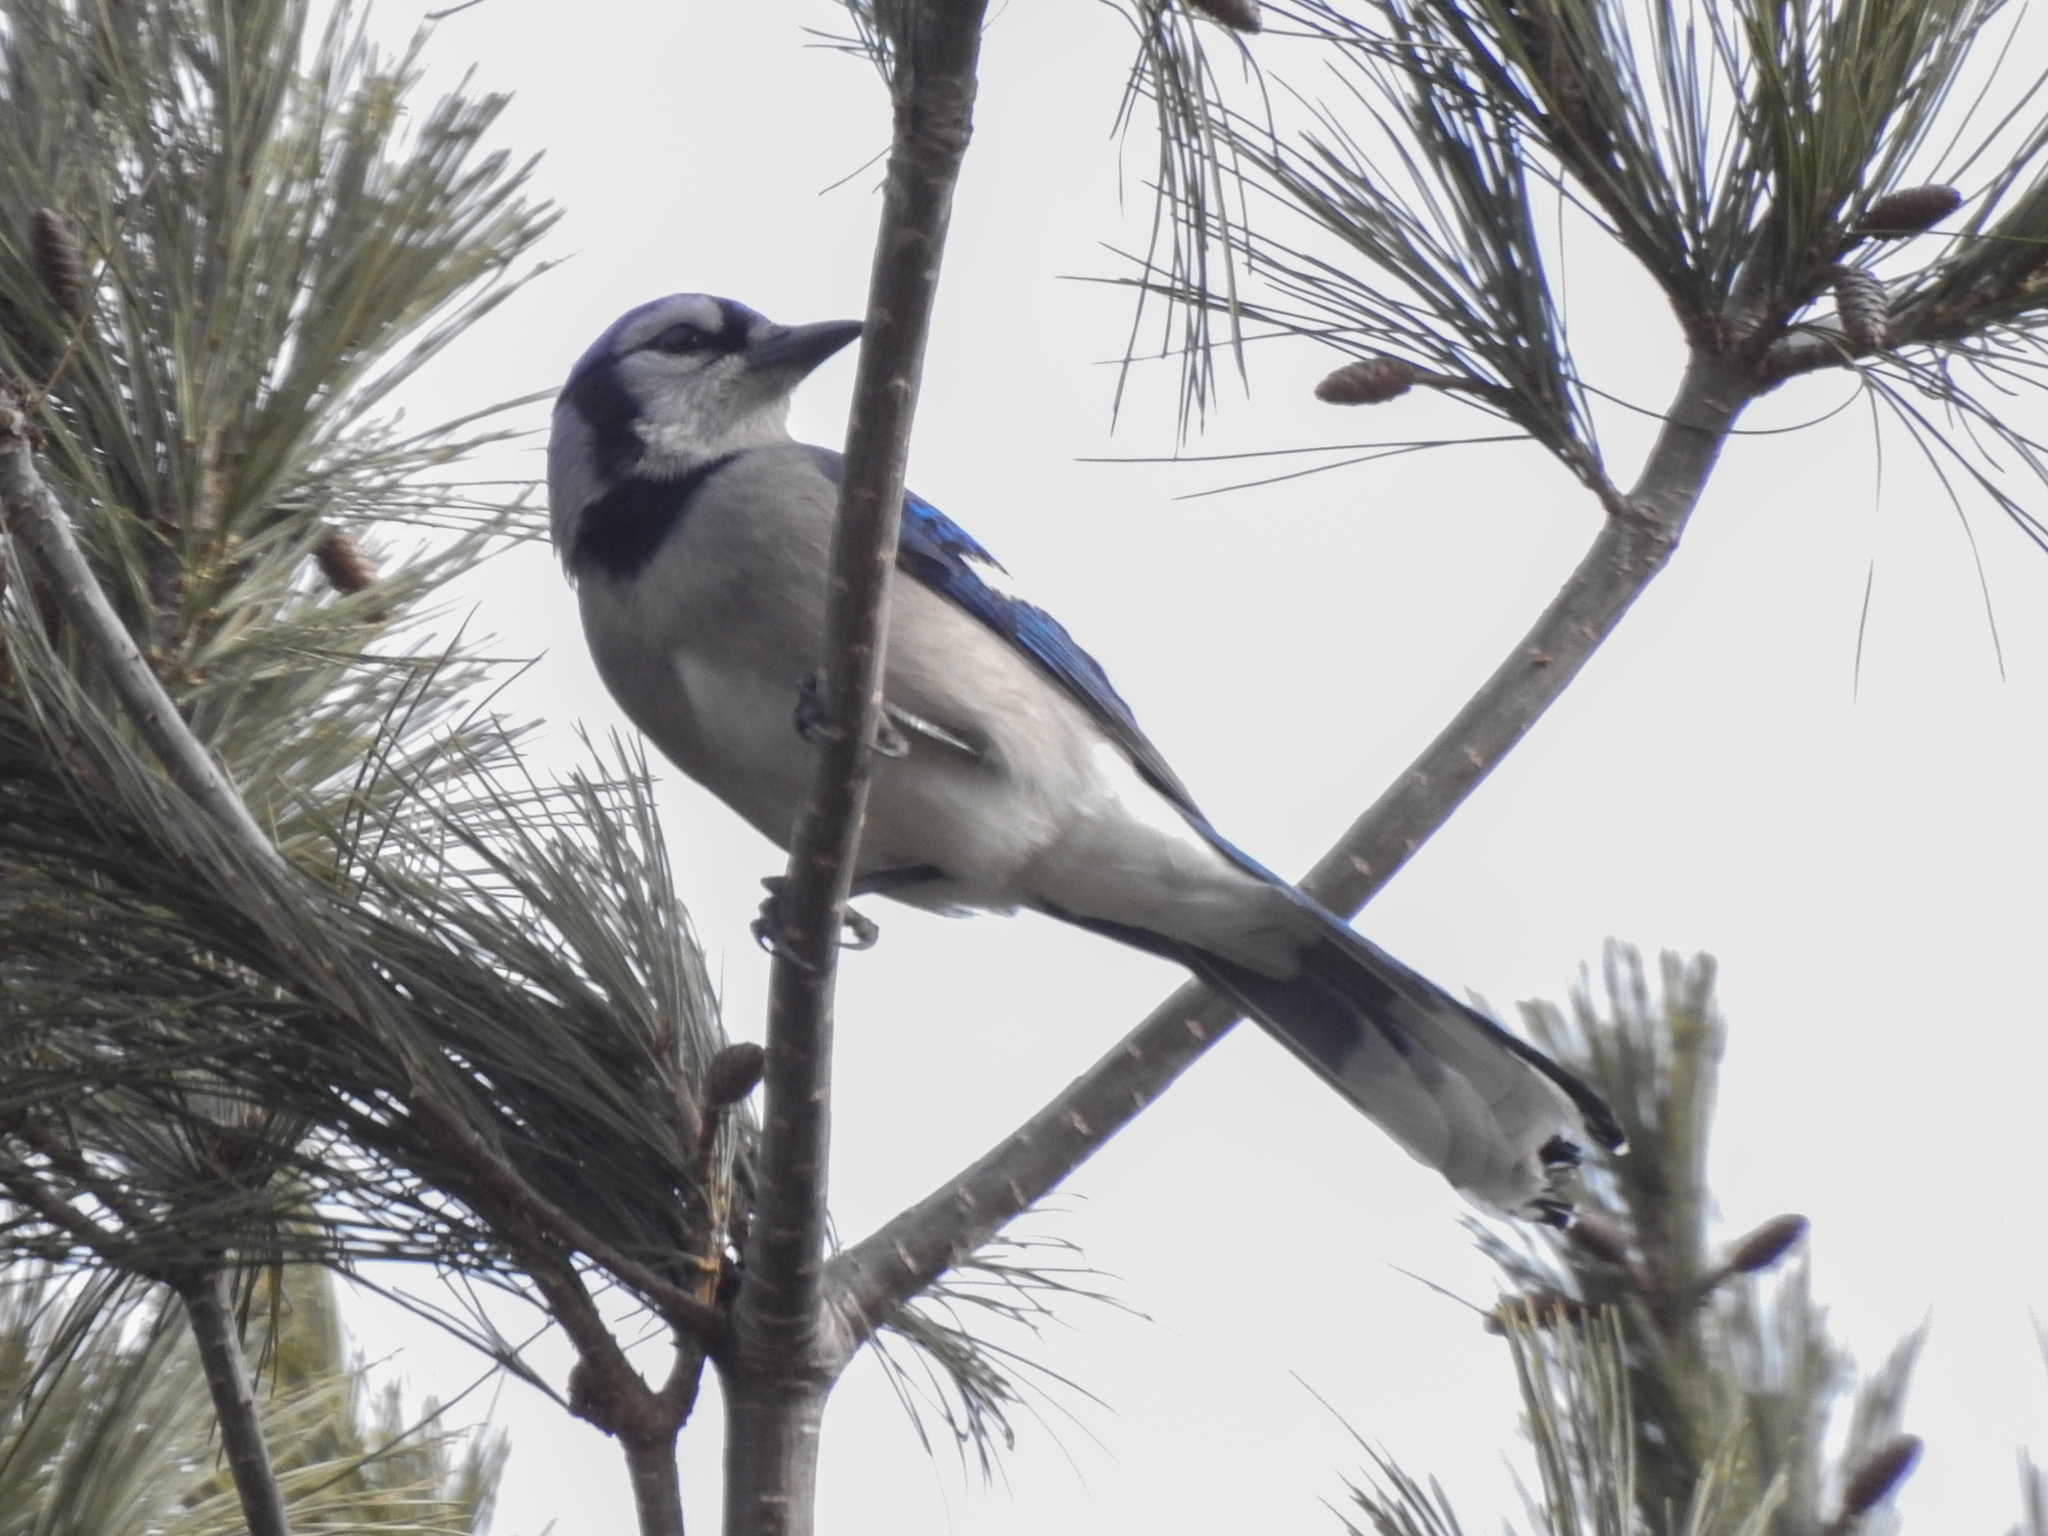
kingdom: Animalia
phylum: Chordata
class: Aves
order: Passeriformes
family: Corvidae
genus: Cyanocitta
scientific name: Cyanocitta cristata
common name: Blue jay
